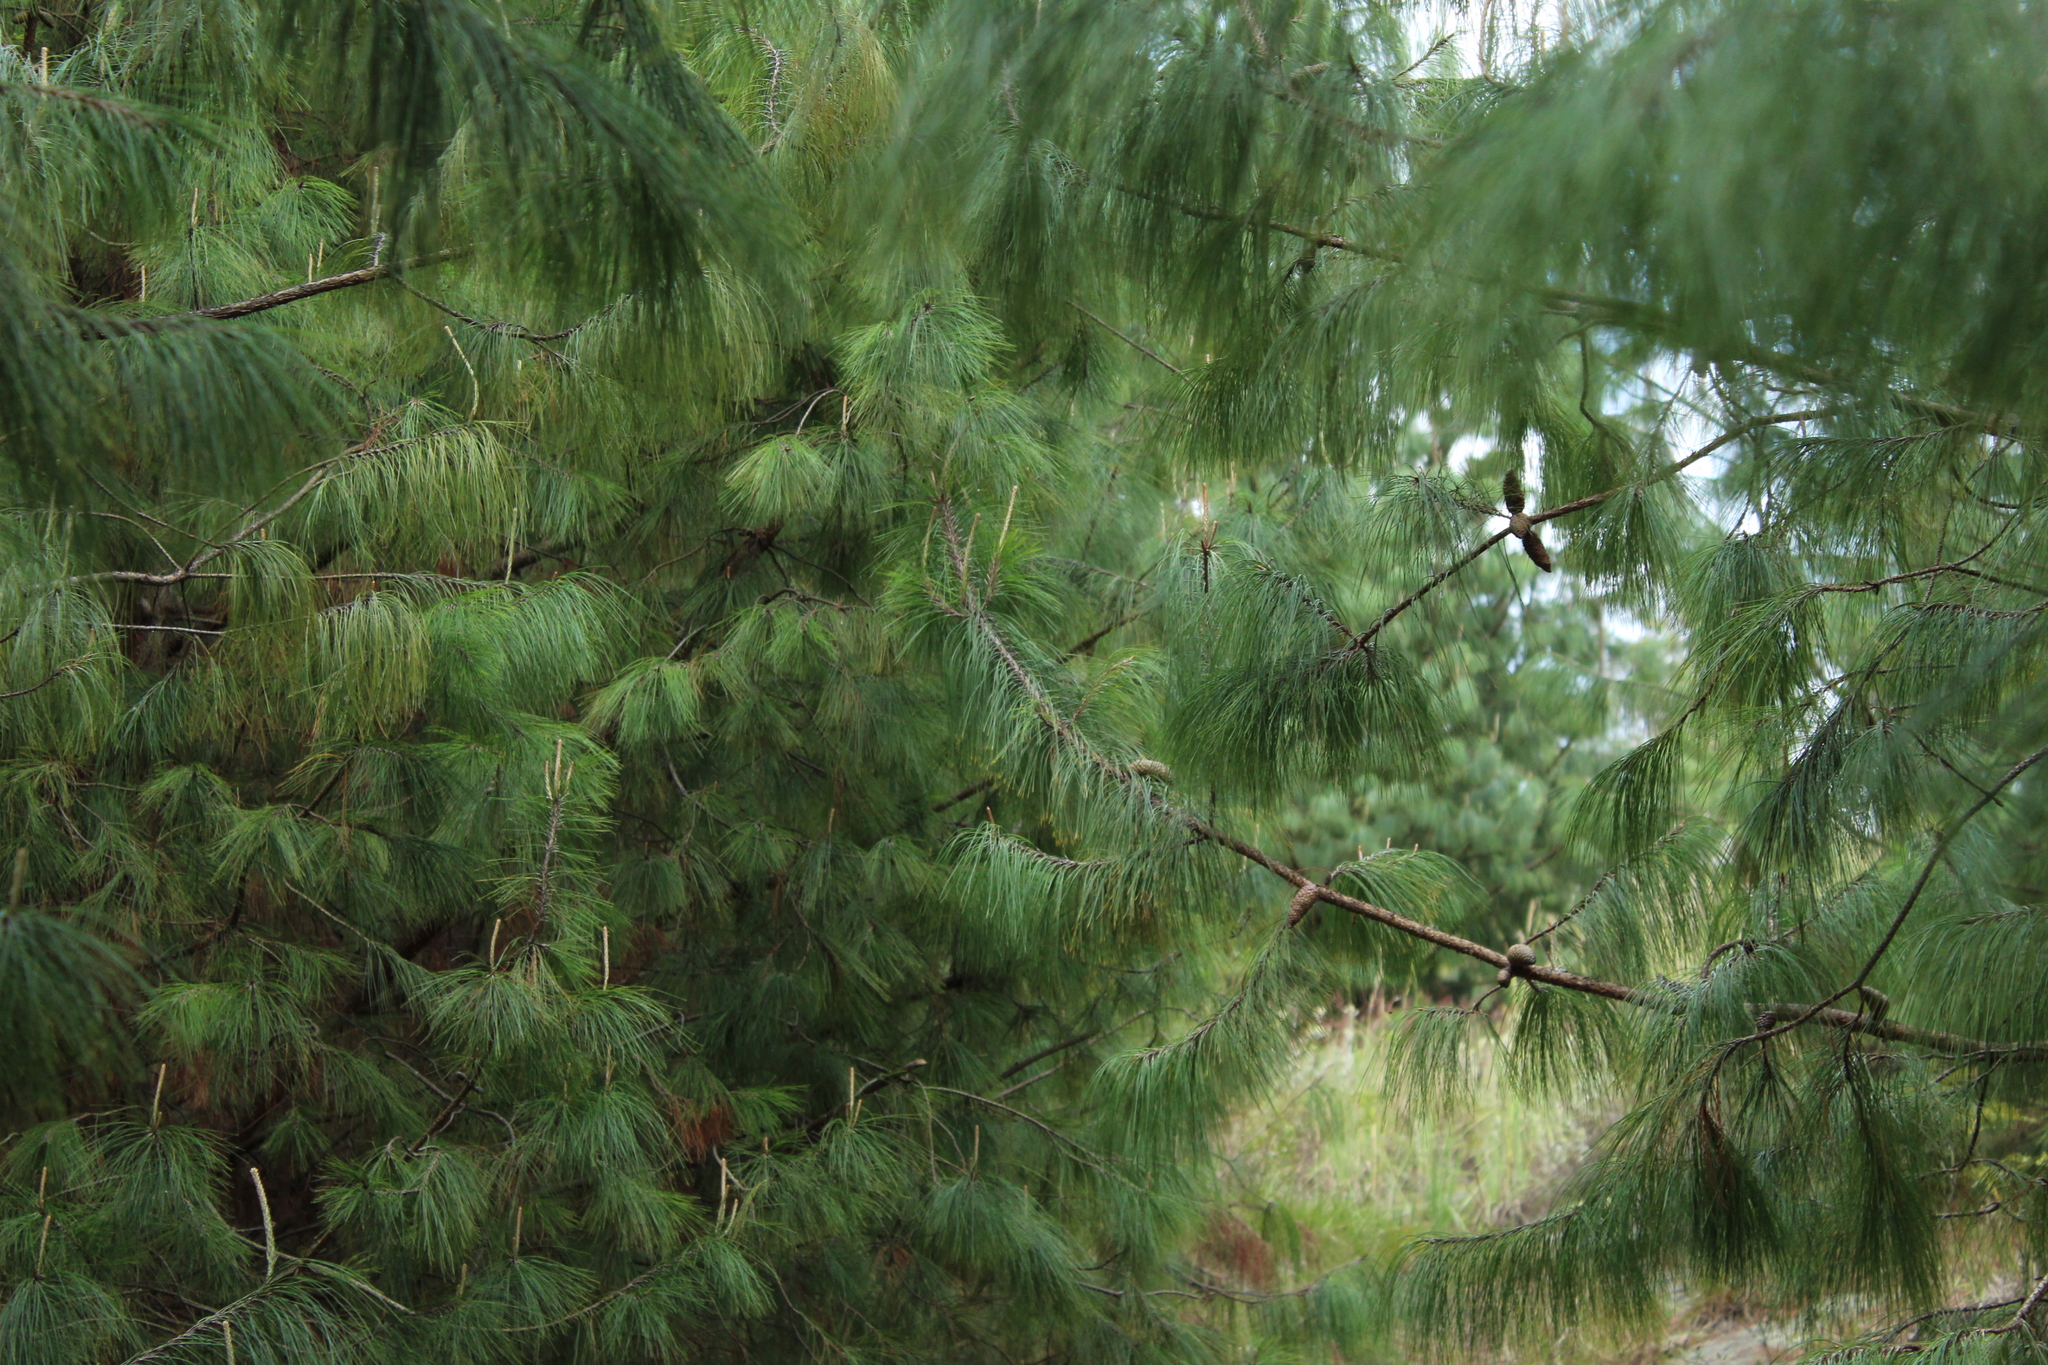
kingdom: Plantae
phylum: Tracheophyta
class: Pinopsida
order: Pinales
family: Pinaceae
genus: Pinus
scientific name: Pinus patula
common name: Mexican weeping pine
